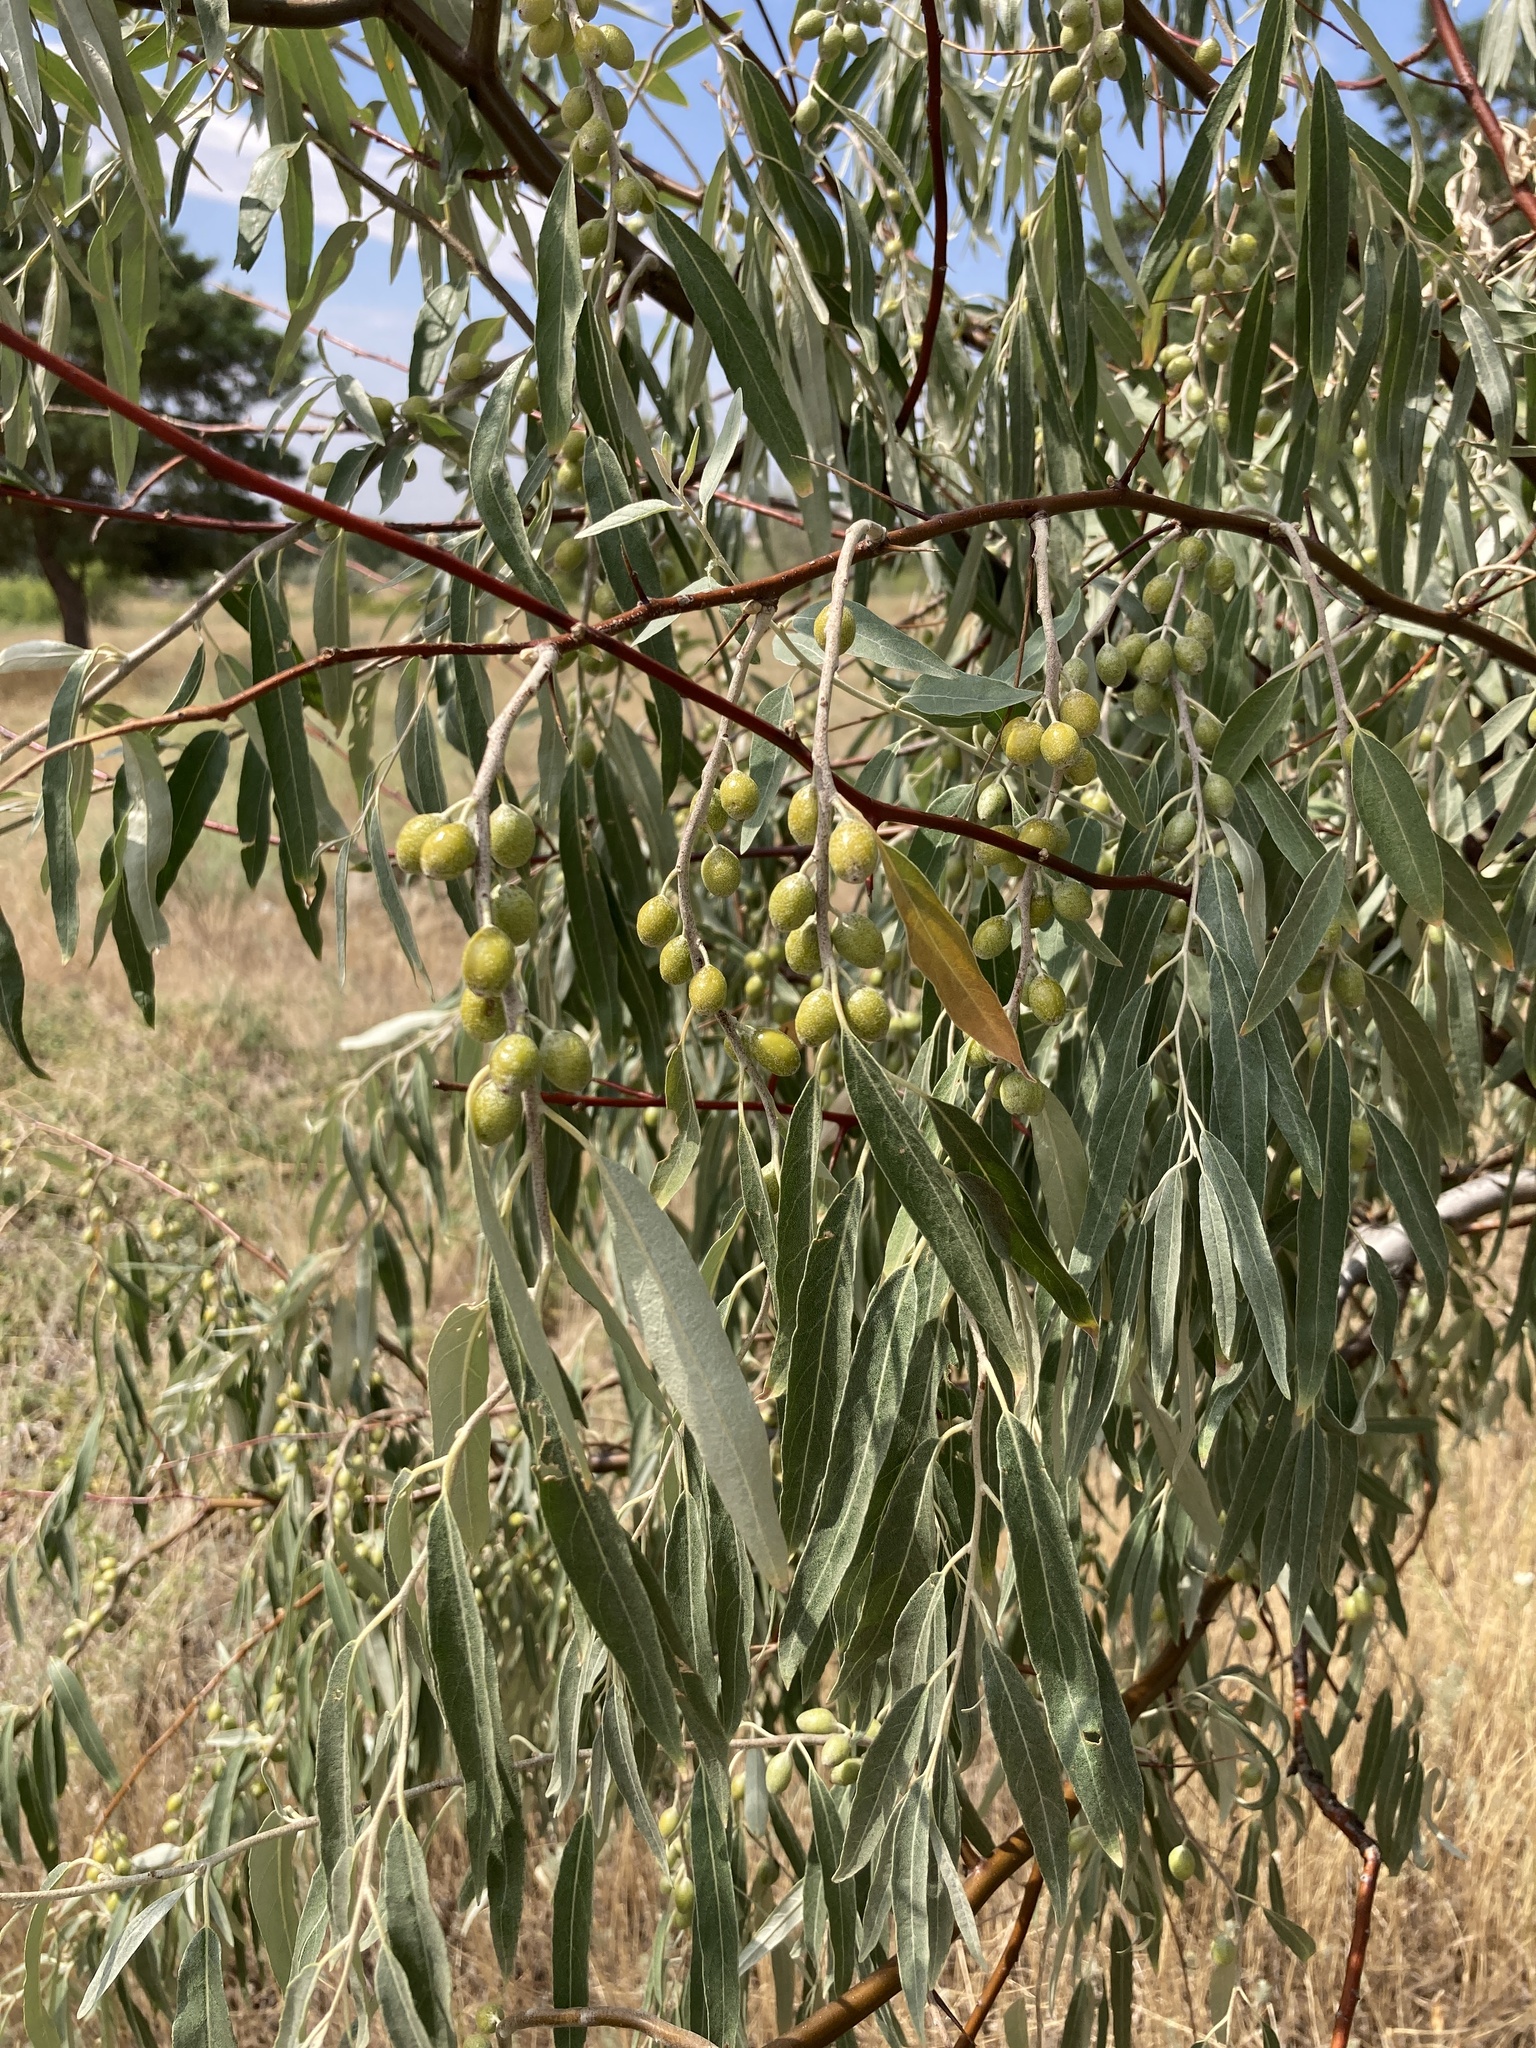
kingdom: Plantae
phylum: Tracheophyta
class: Magnoliopsida
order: Rosales
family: Elaeagnaceae
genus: Elaeagnus
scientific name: Elaeagnus angustifolia
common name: Russian olive
